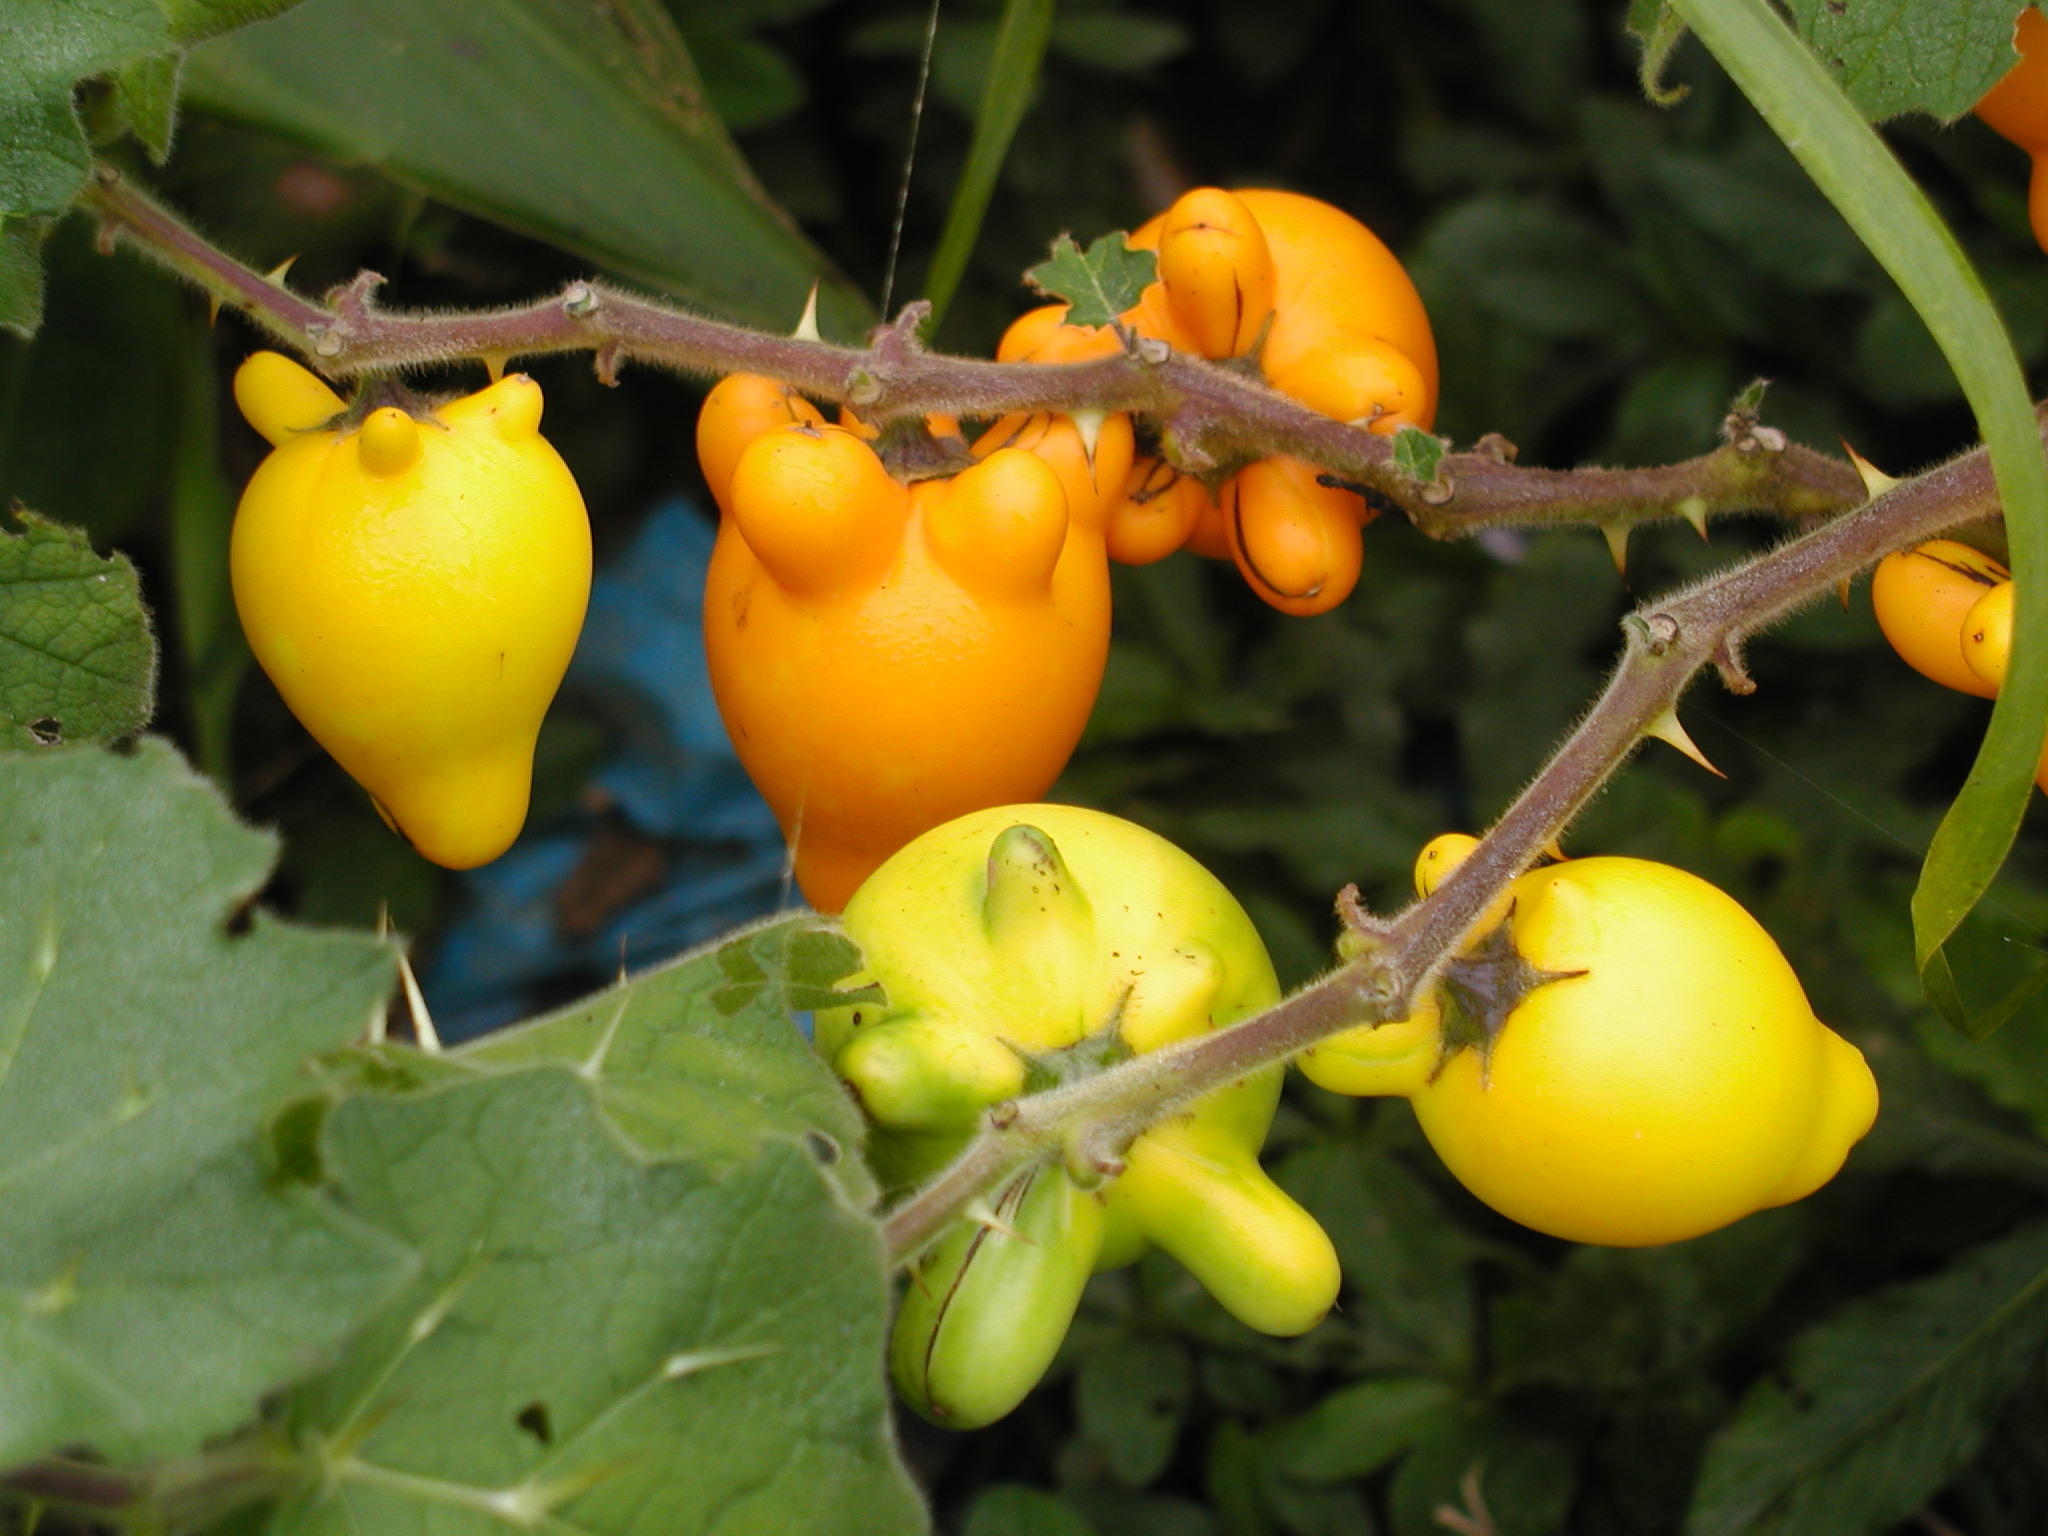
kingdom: Plantae
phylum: Tracheophyta
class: Magnoliopsida
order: Solanales
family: Solanaceae
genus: Solanum
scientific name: Solanum mammosum
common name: Nipple fruit
